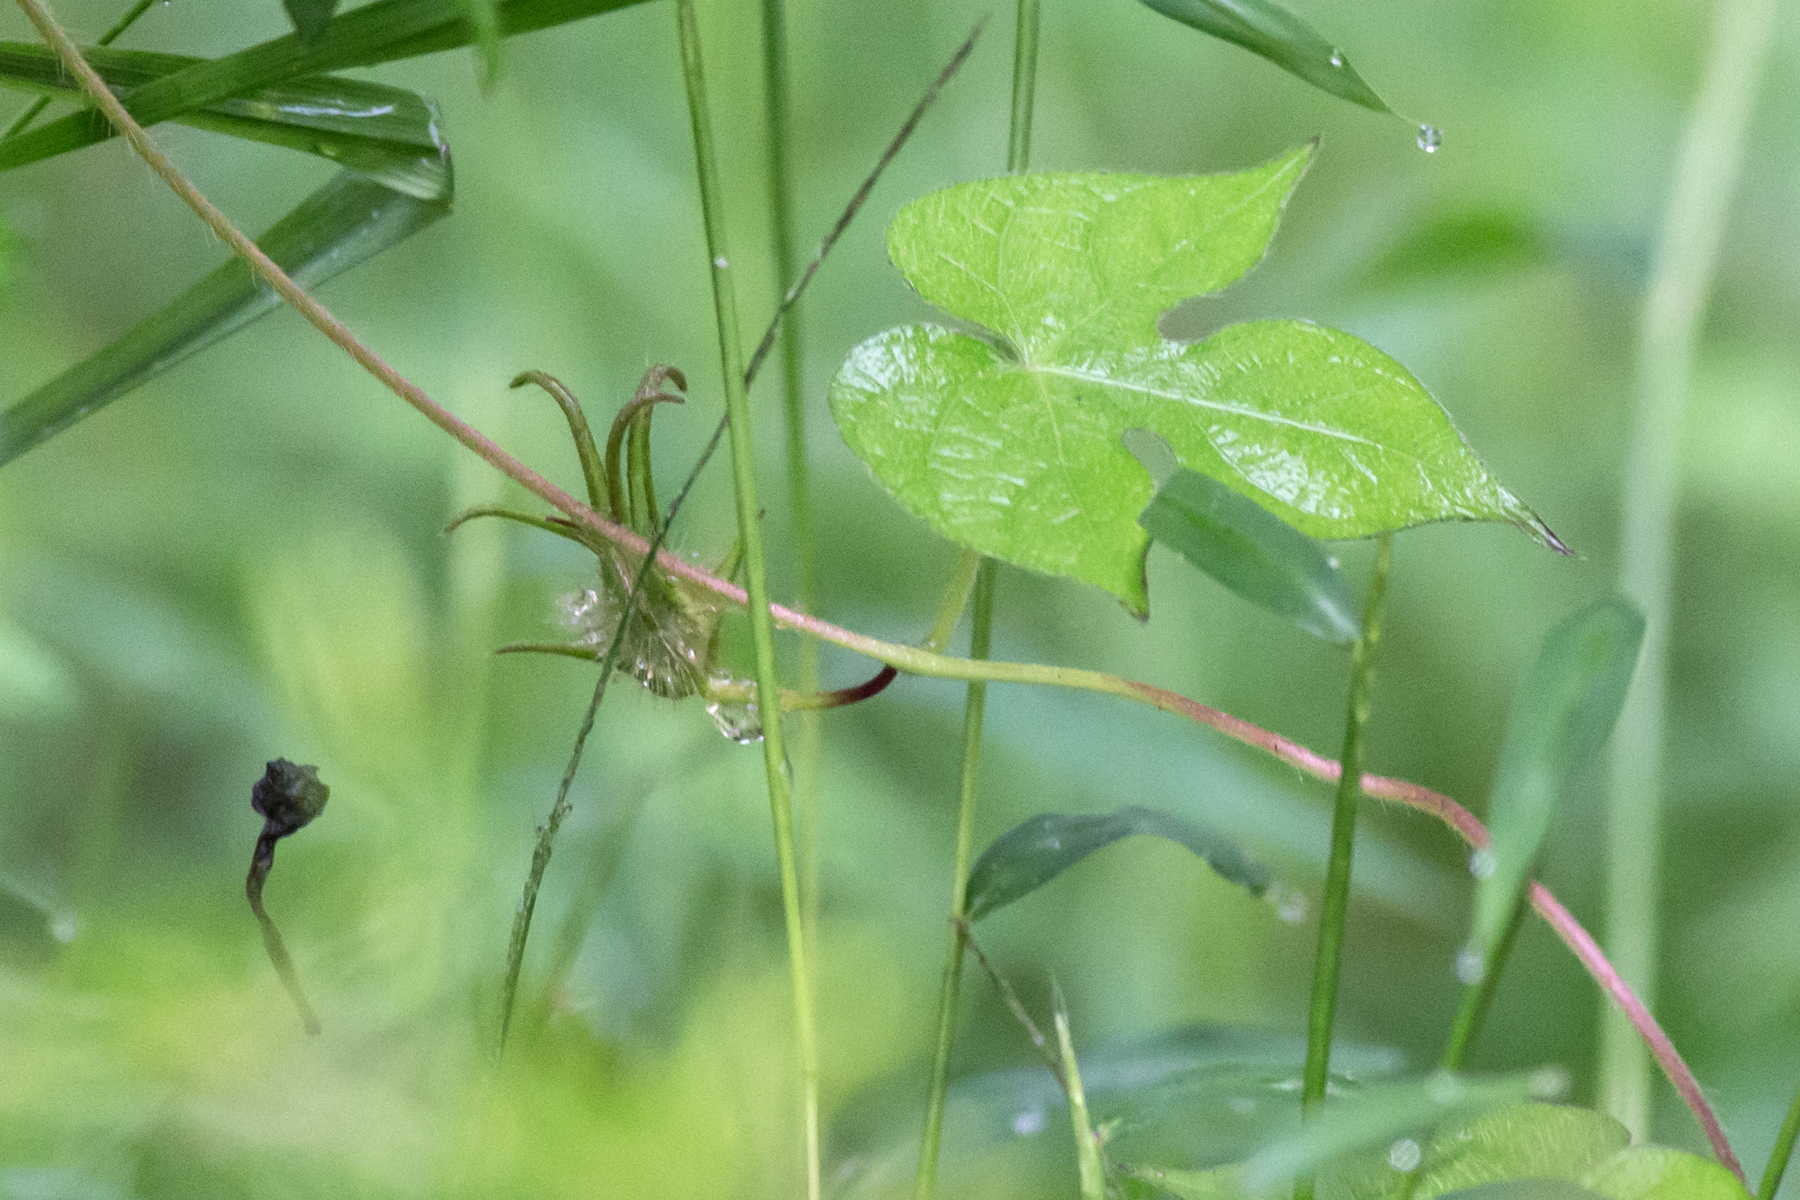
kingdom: Plantae
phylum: Tracheophyta
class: Magnoliopsida
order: Solanales
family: Convolvulaceae
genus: Ipomoea
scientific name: Ipomoea hederacea
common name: Ivy-leaved morning-glory
